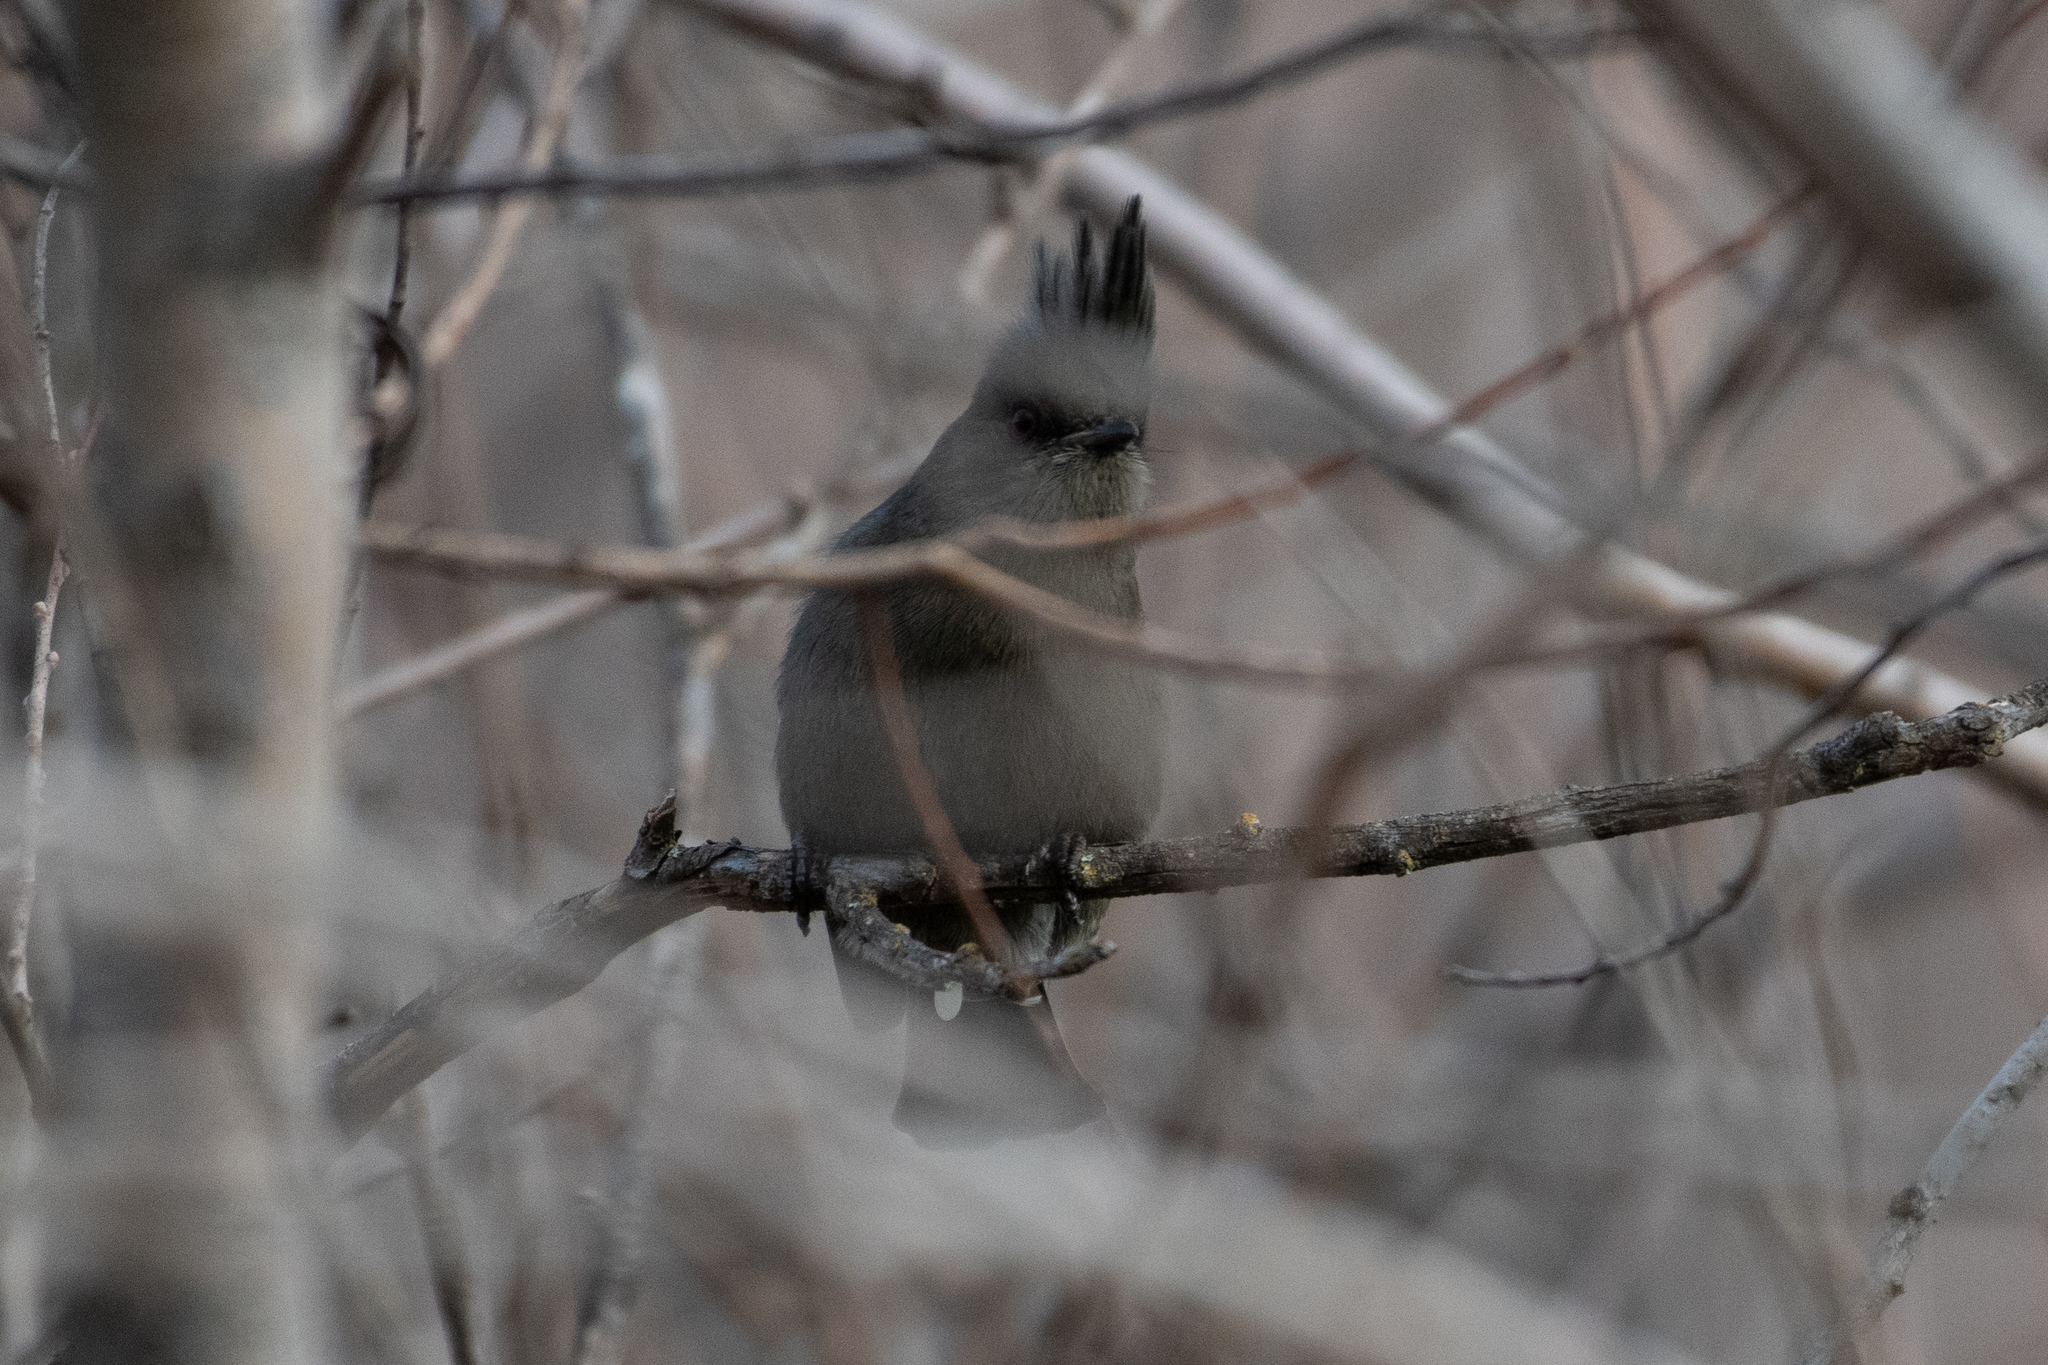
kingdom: Animalia
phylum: Chordata
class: Aves
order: Passeriformes
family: Ptilogonatidae
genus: Phainopepla
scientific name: Phainopepla nitens
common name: Phainopepla
